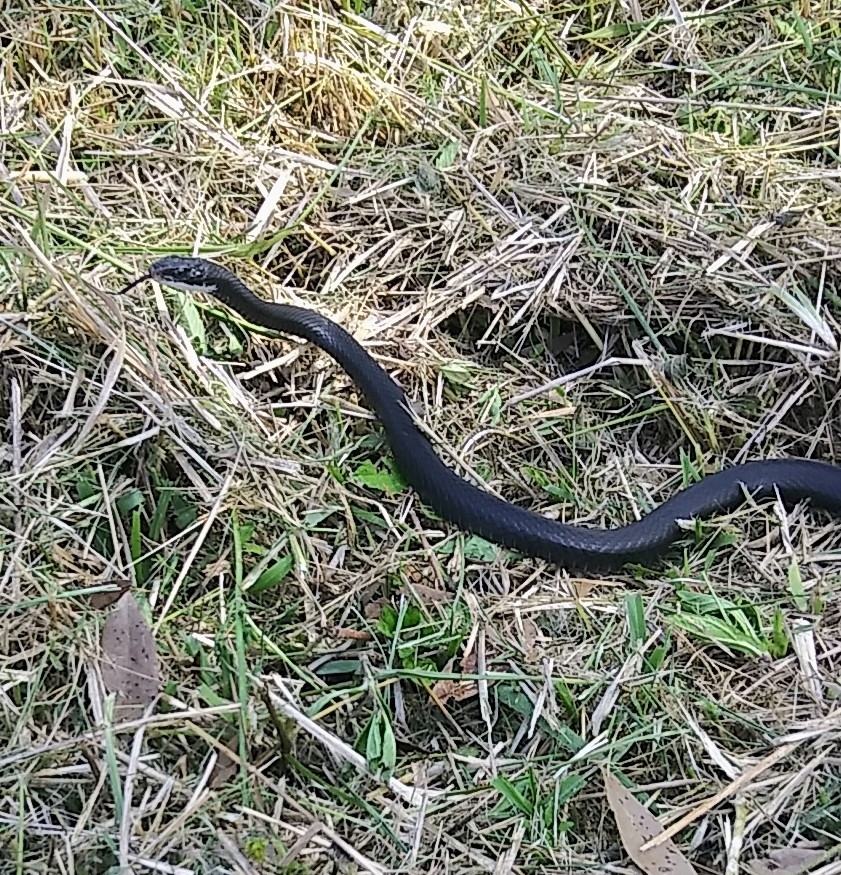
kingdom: Animalia
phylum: Chordata
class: Squamata
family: Colubridae
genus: Coluber
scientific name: Coluber constrictor
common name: Eastern racer
